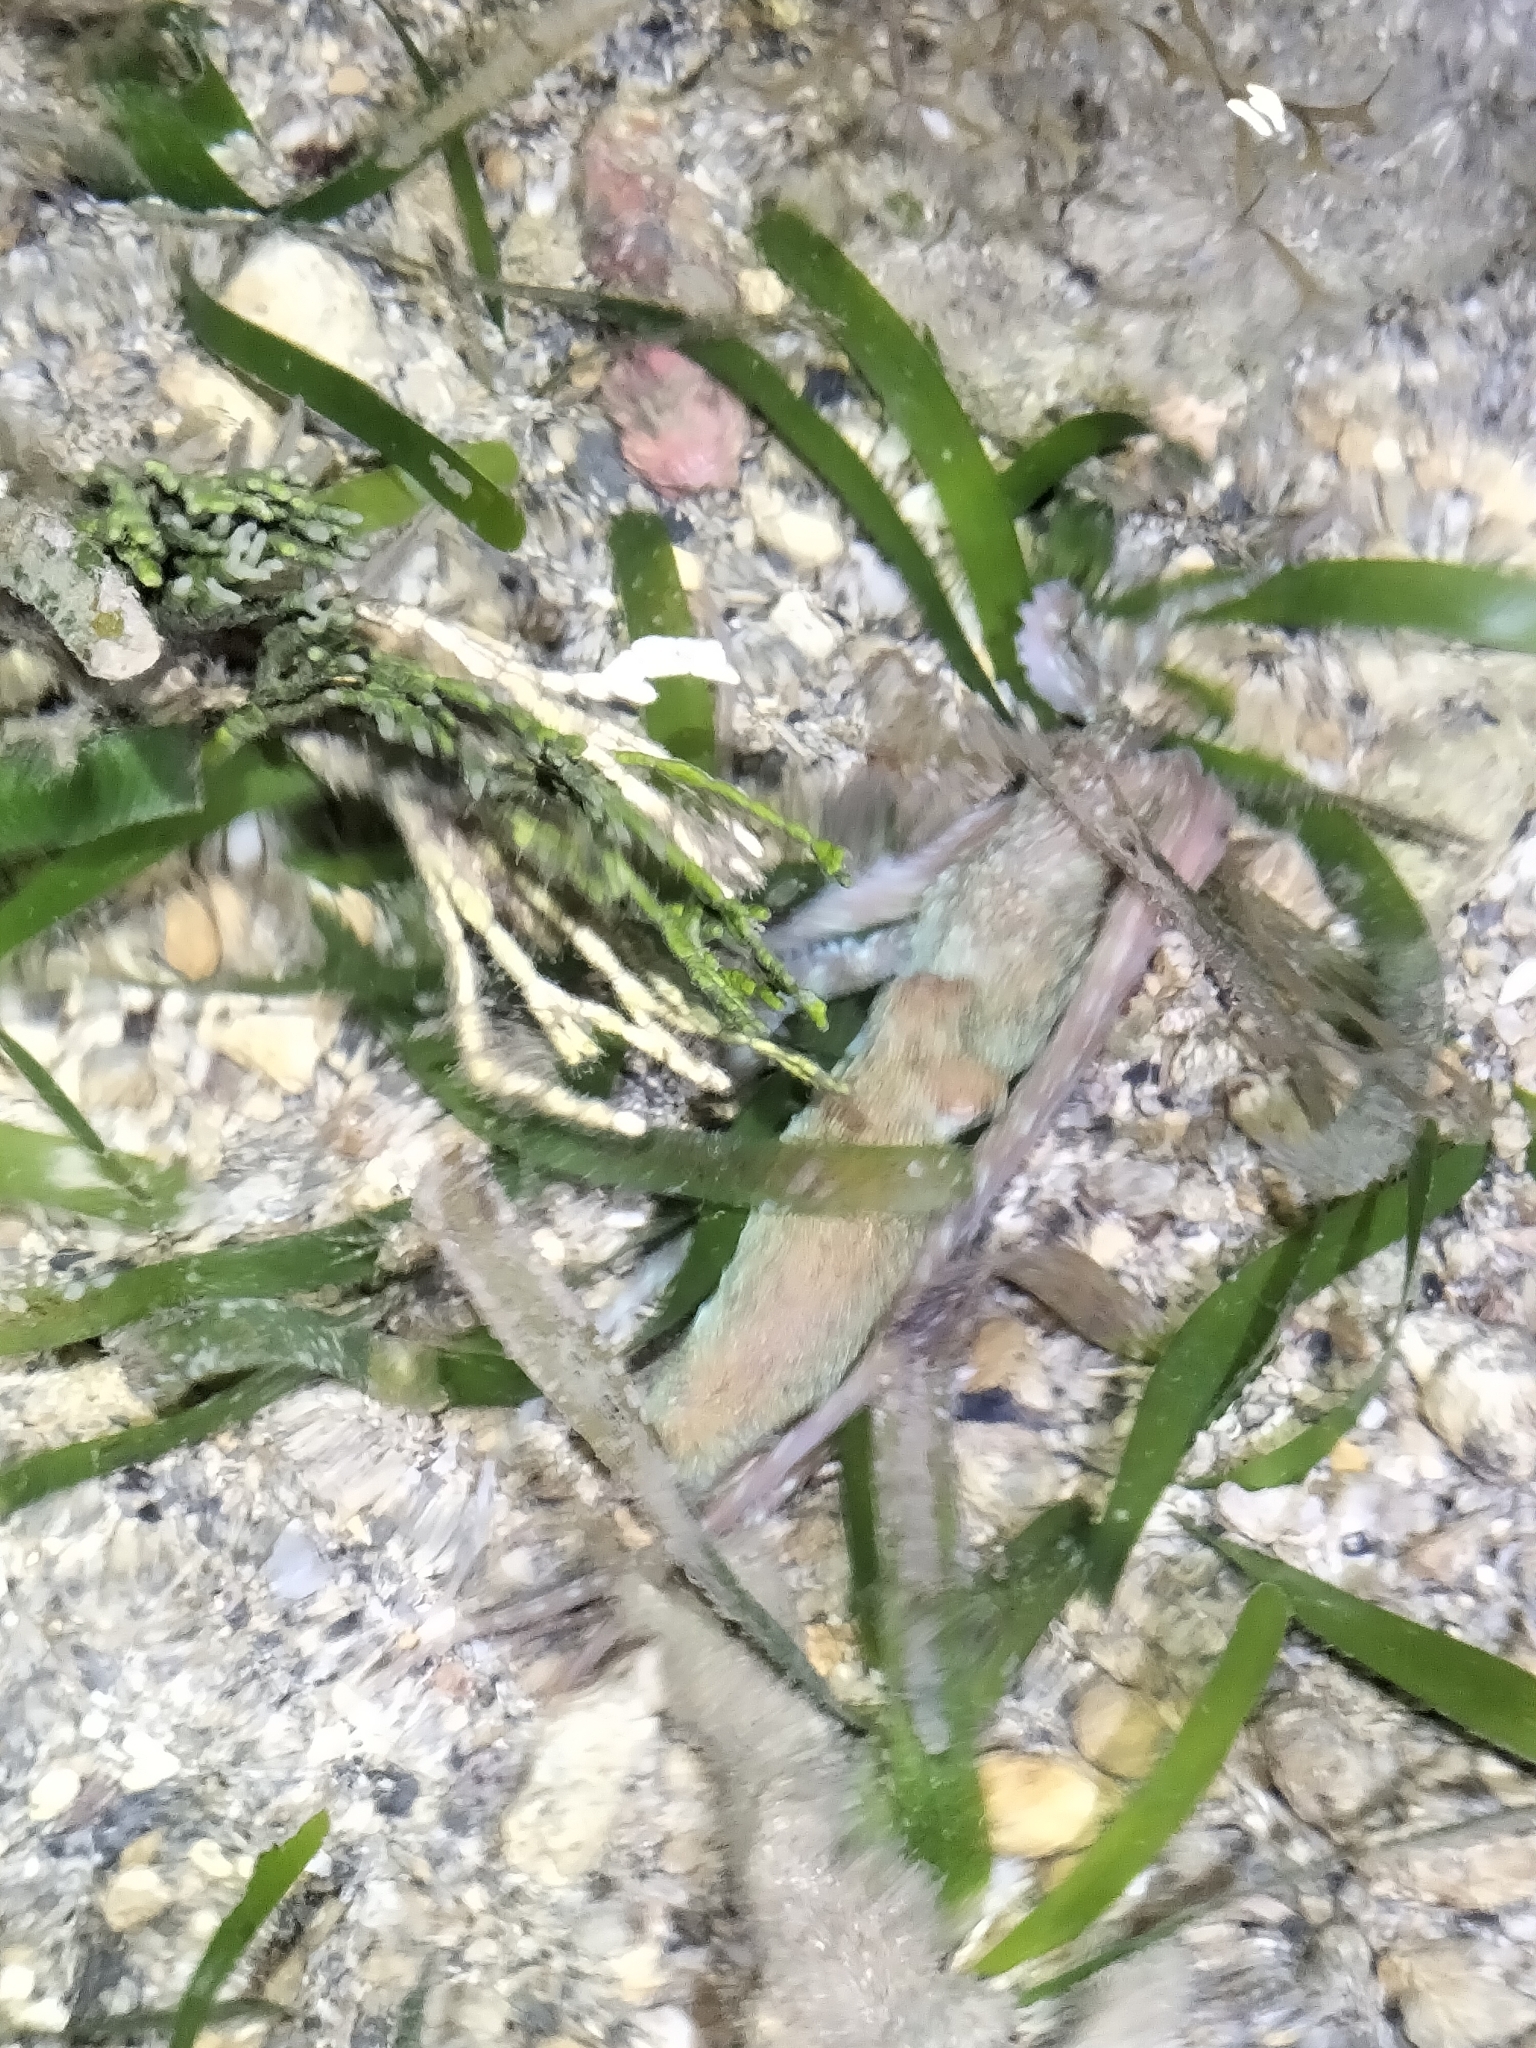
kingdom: Animalia
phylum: Mollusca
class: Cephalopoda
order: Octopoda
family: Octopodidae
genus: Callistoctopus
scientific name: Callistoctopus aspilosomatis
